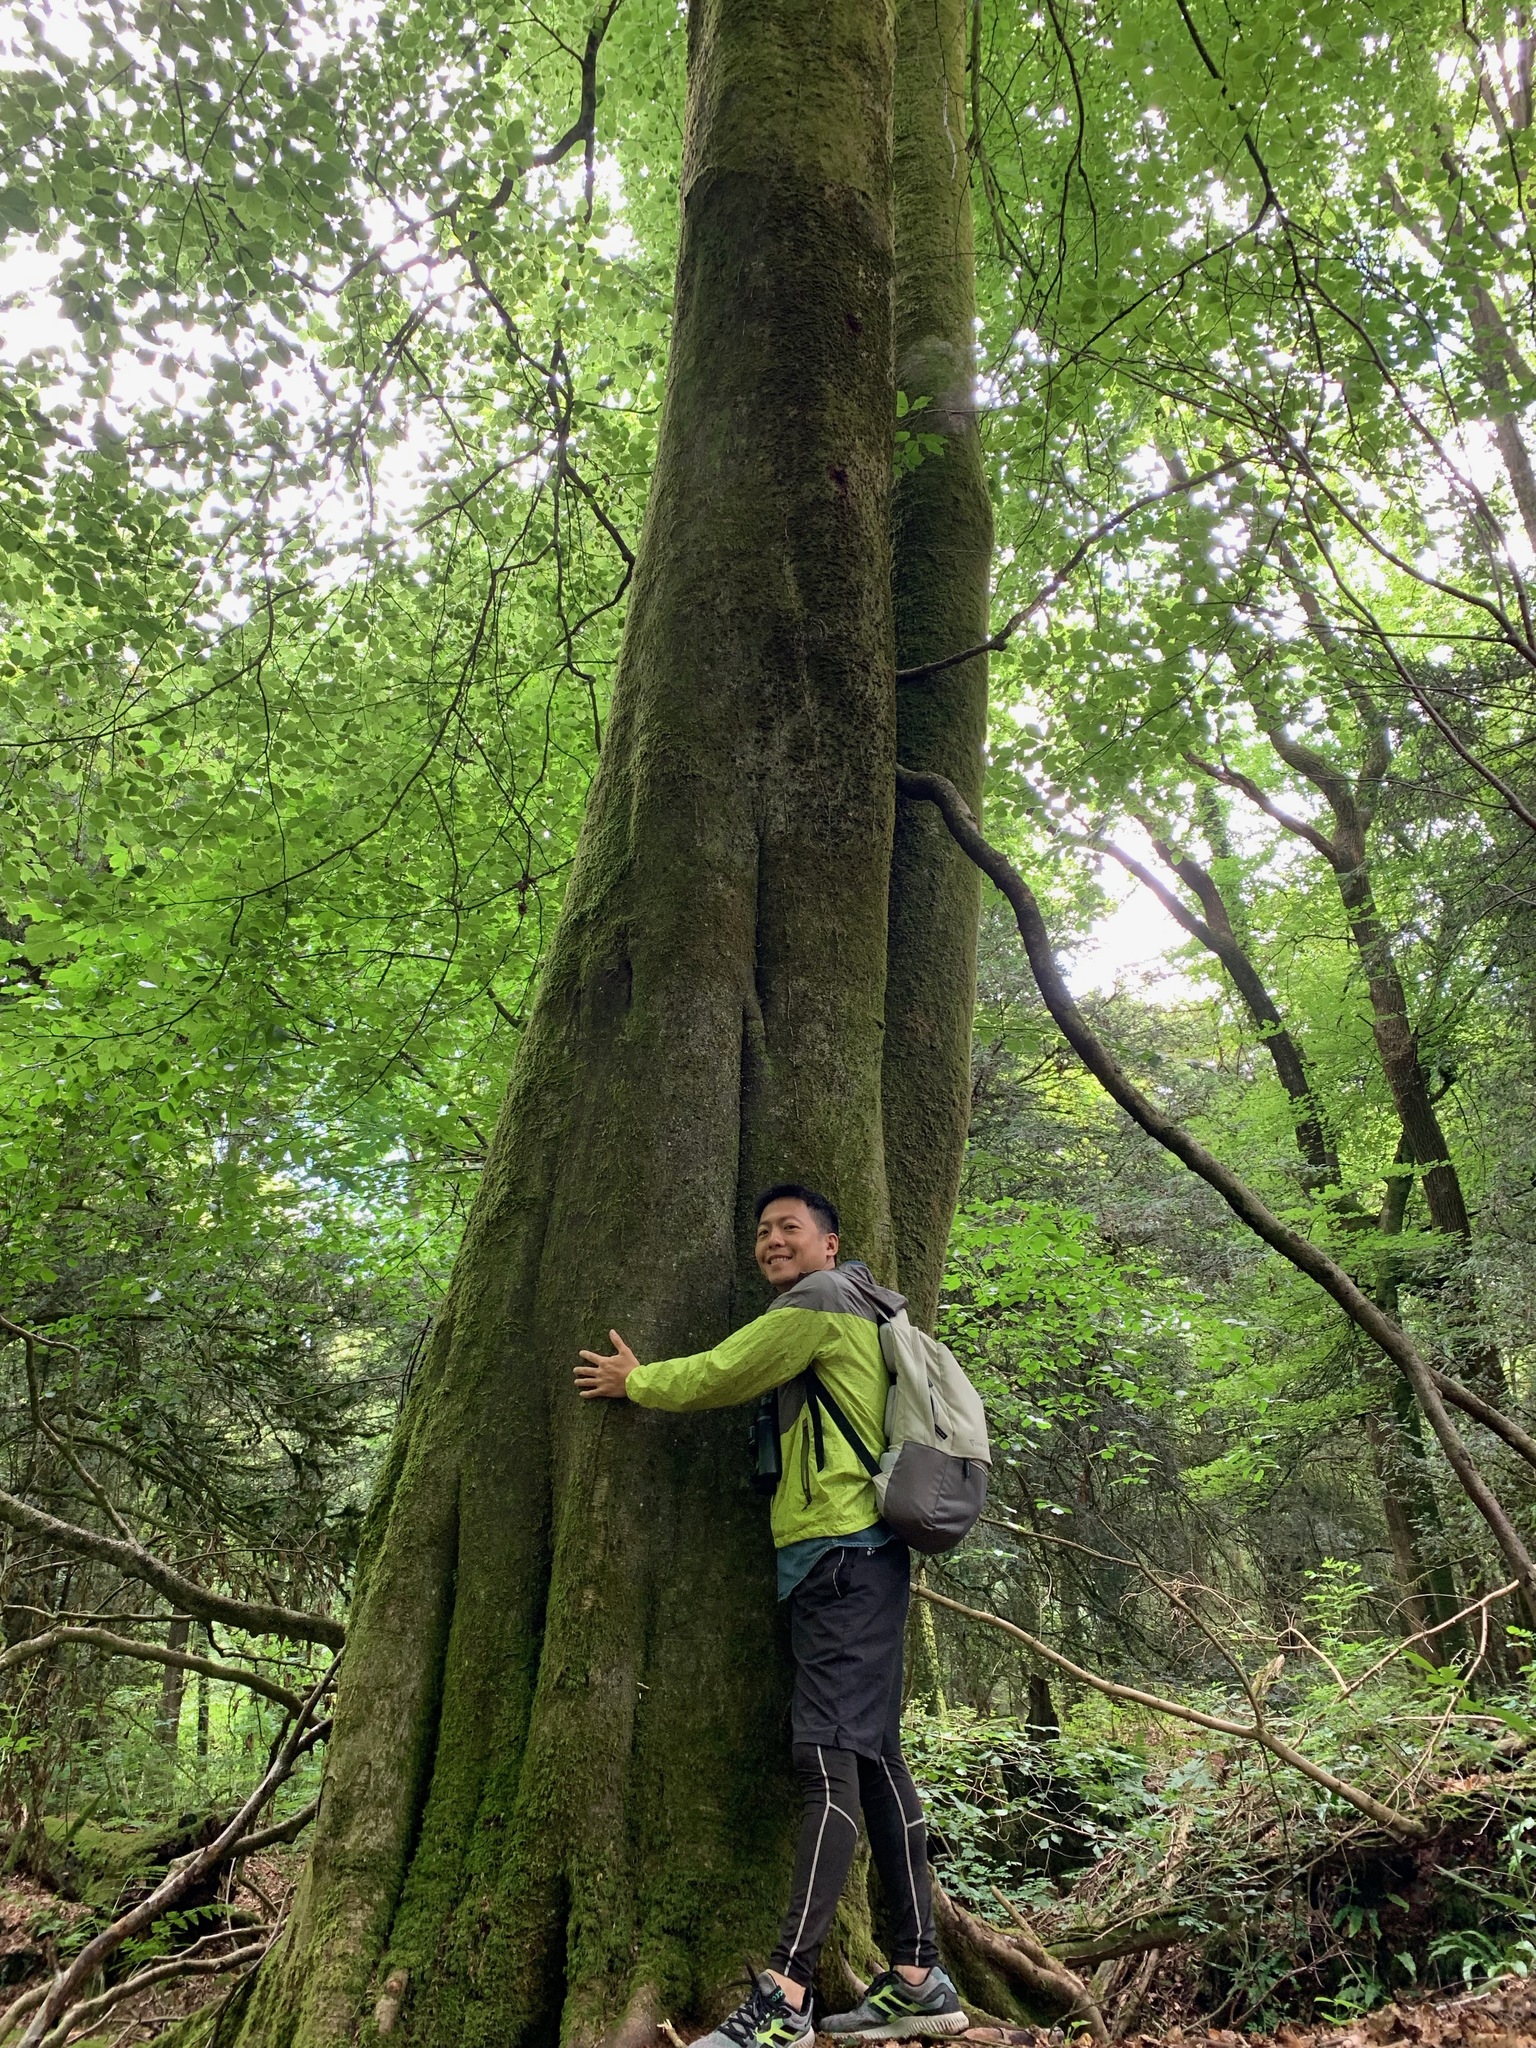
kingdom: Plantae
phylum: Tracheophyta
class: Magnoliopsida
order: Fagales
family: Fagaceae
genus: Fagus
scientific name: Fagus sylvatica
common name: Beech
